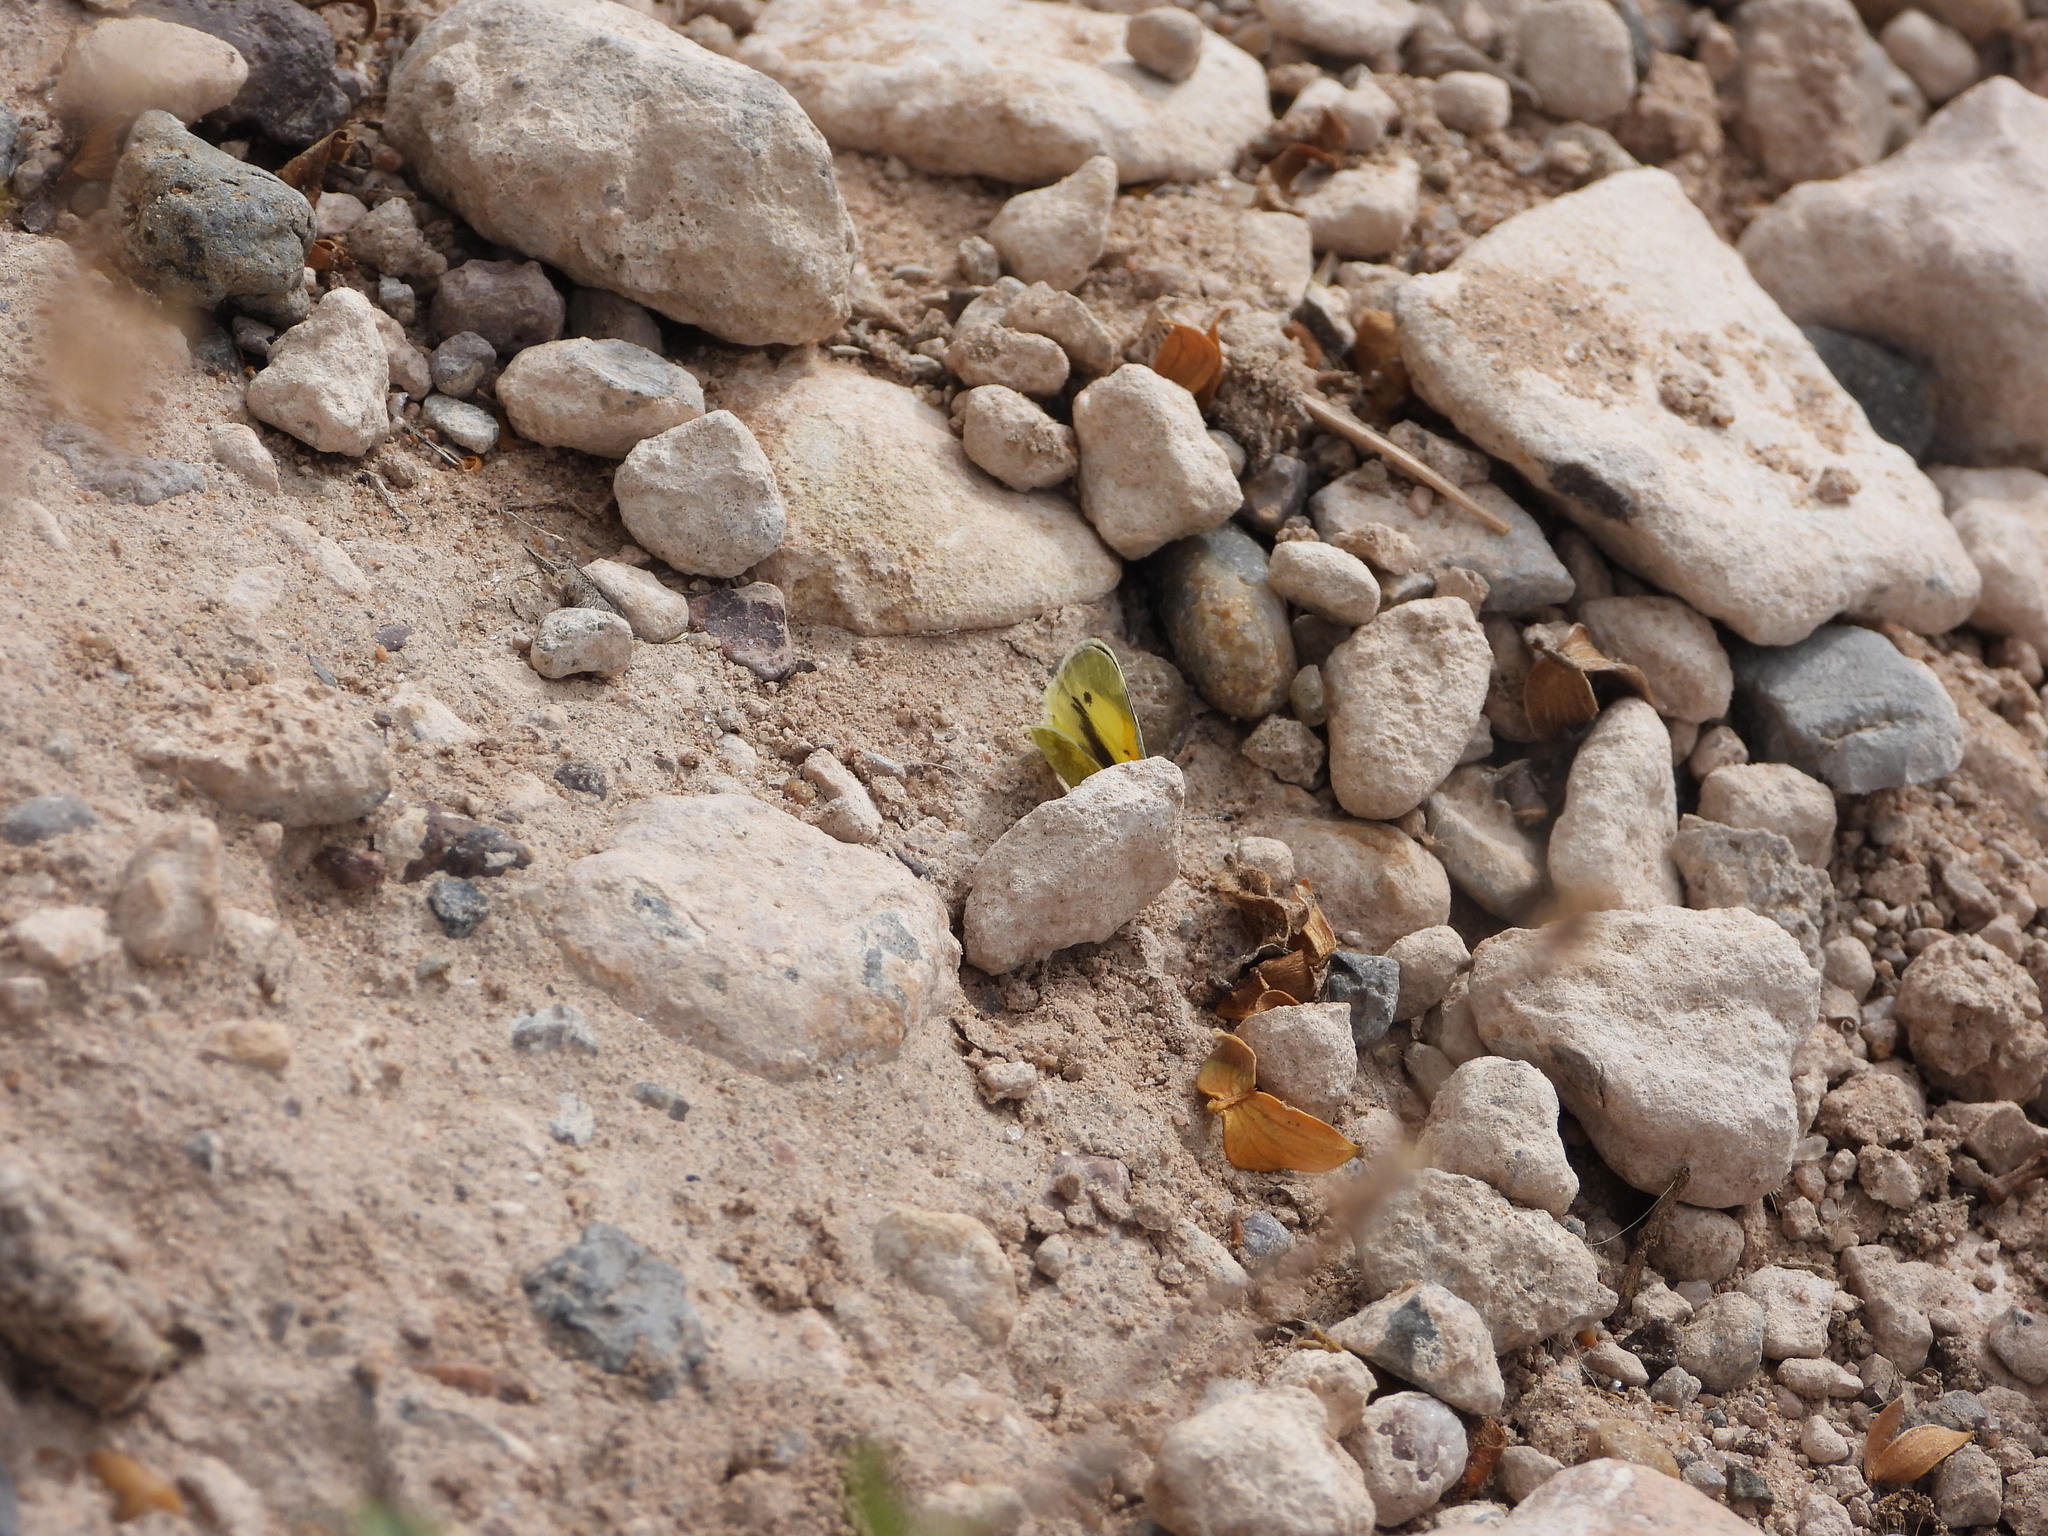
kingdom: Animalia
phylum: Arthropoda
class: Insecta
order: Lepidoptera
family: Pieridae
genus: Nathalis
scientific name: Nathalis iole
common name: Dainty sulphur
